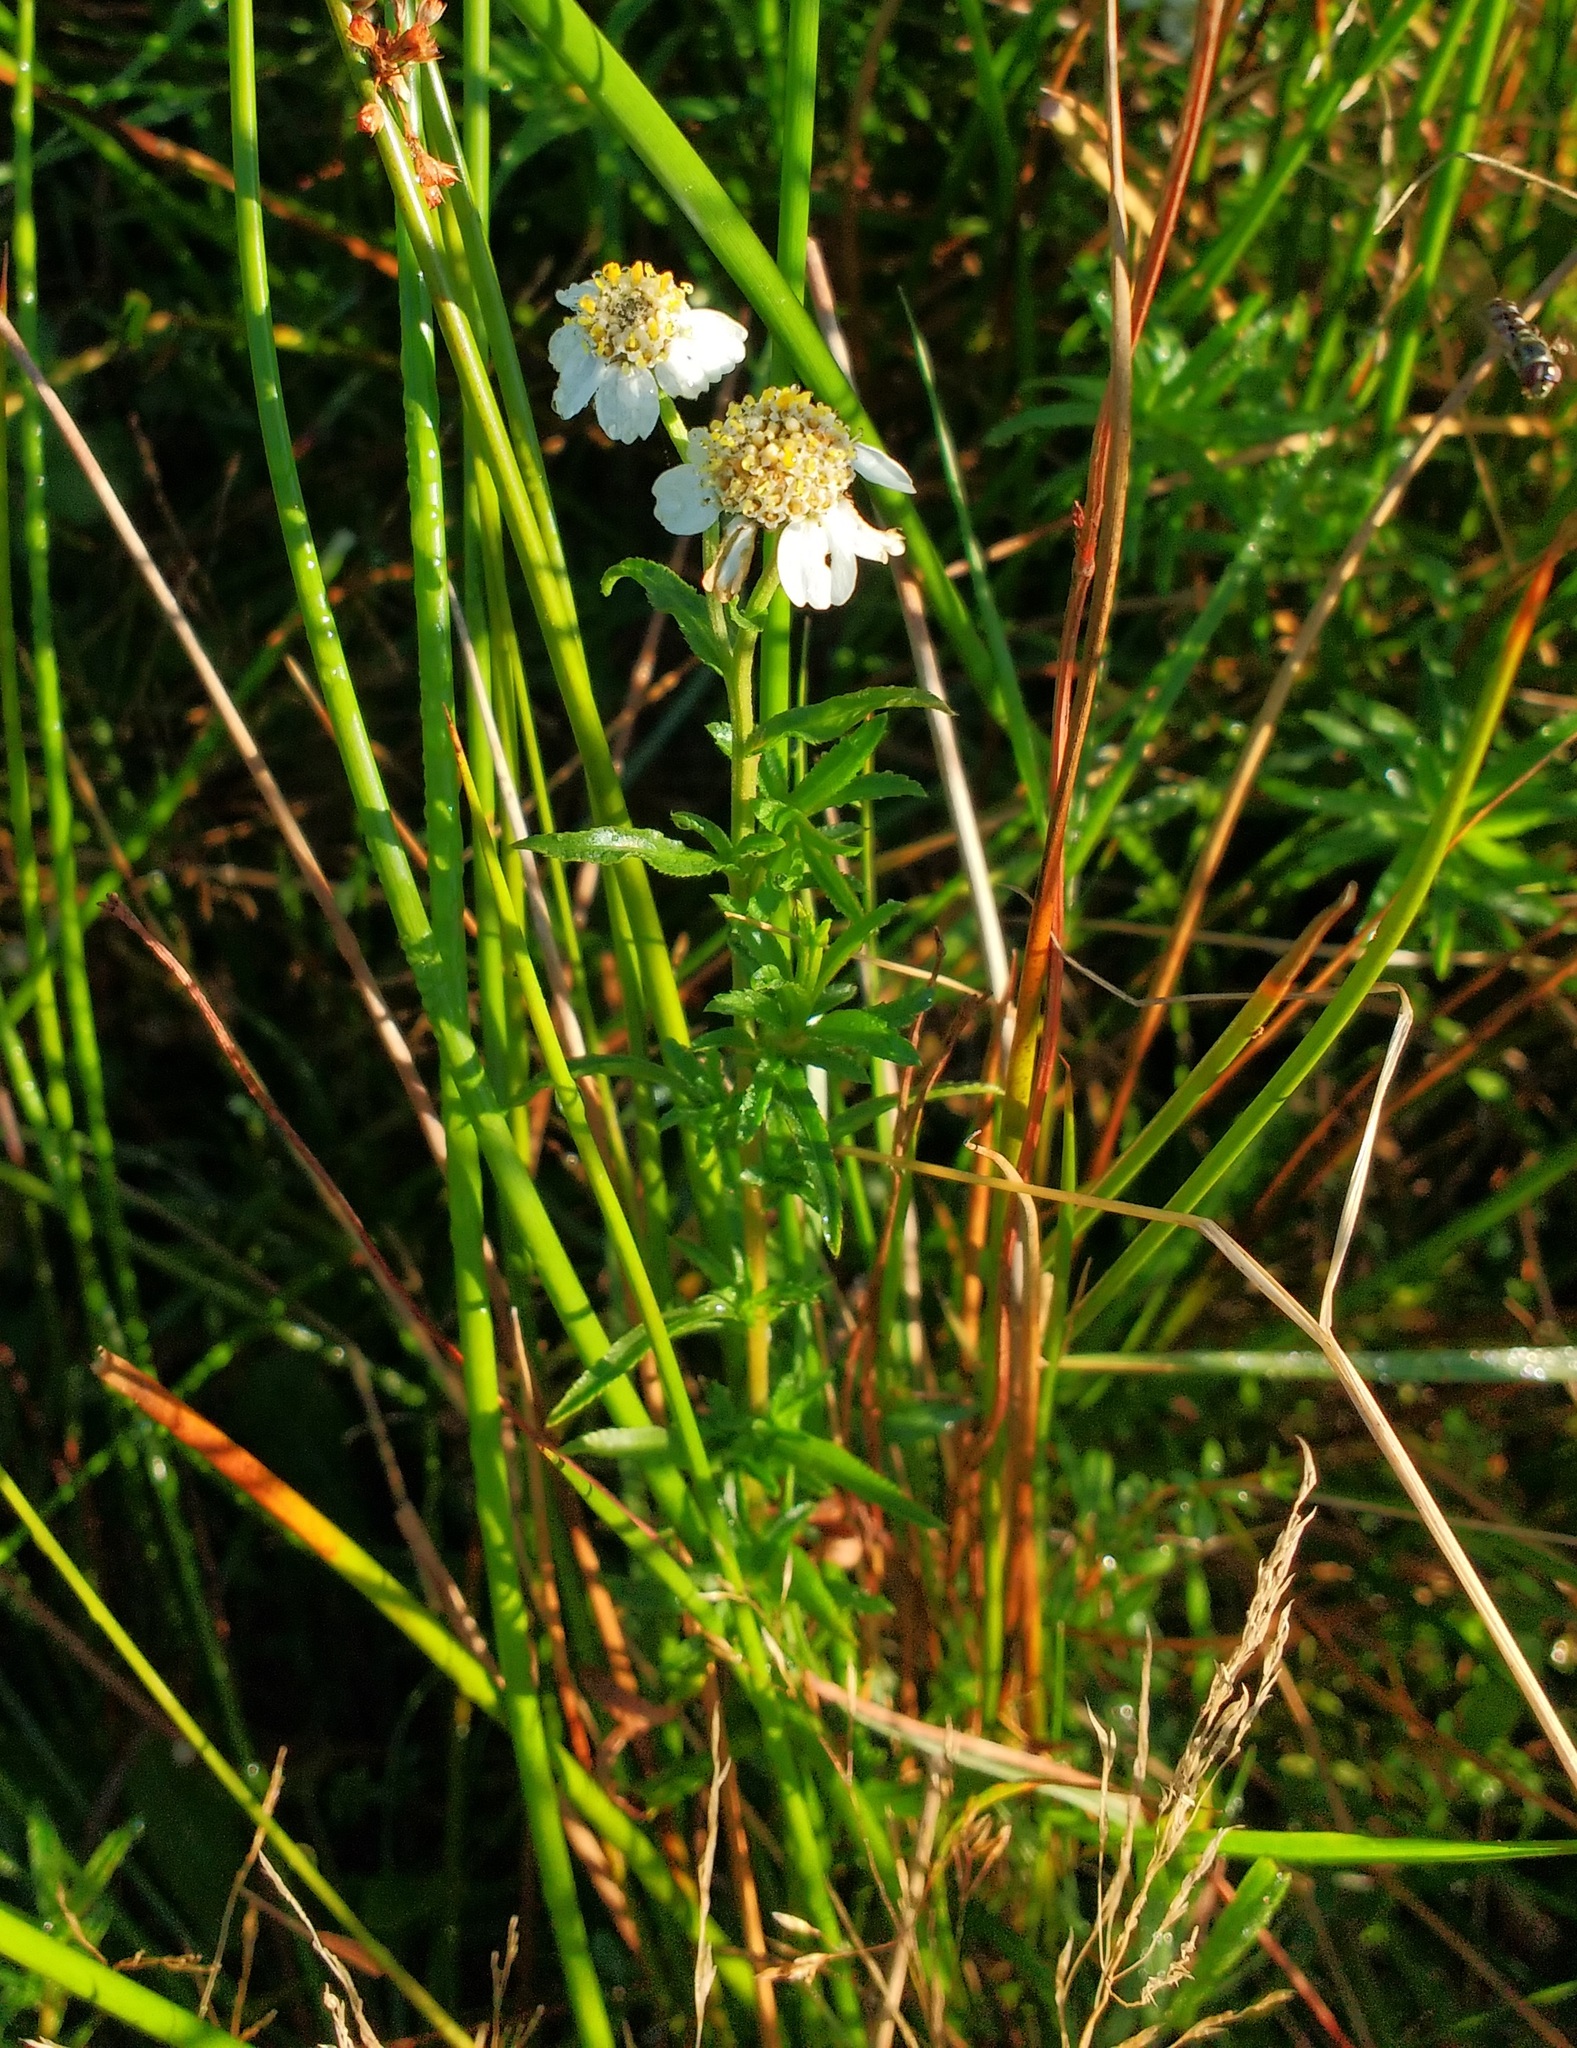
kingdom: Plantae
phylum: Tracheophyta
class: Magnoliopsida
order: Asterales
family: Asteraceae
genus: Achillea
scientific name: Achillea ptarmica
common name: Sneezeweed
